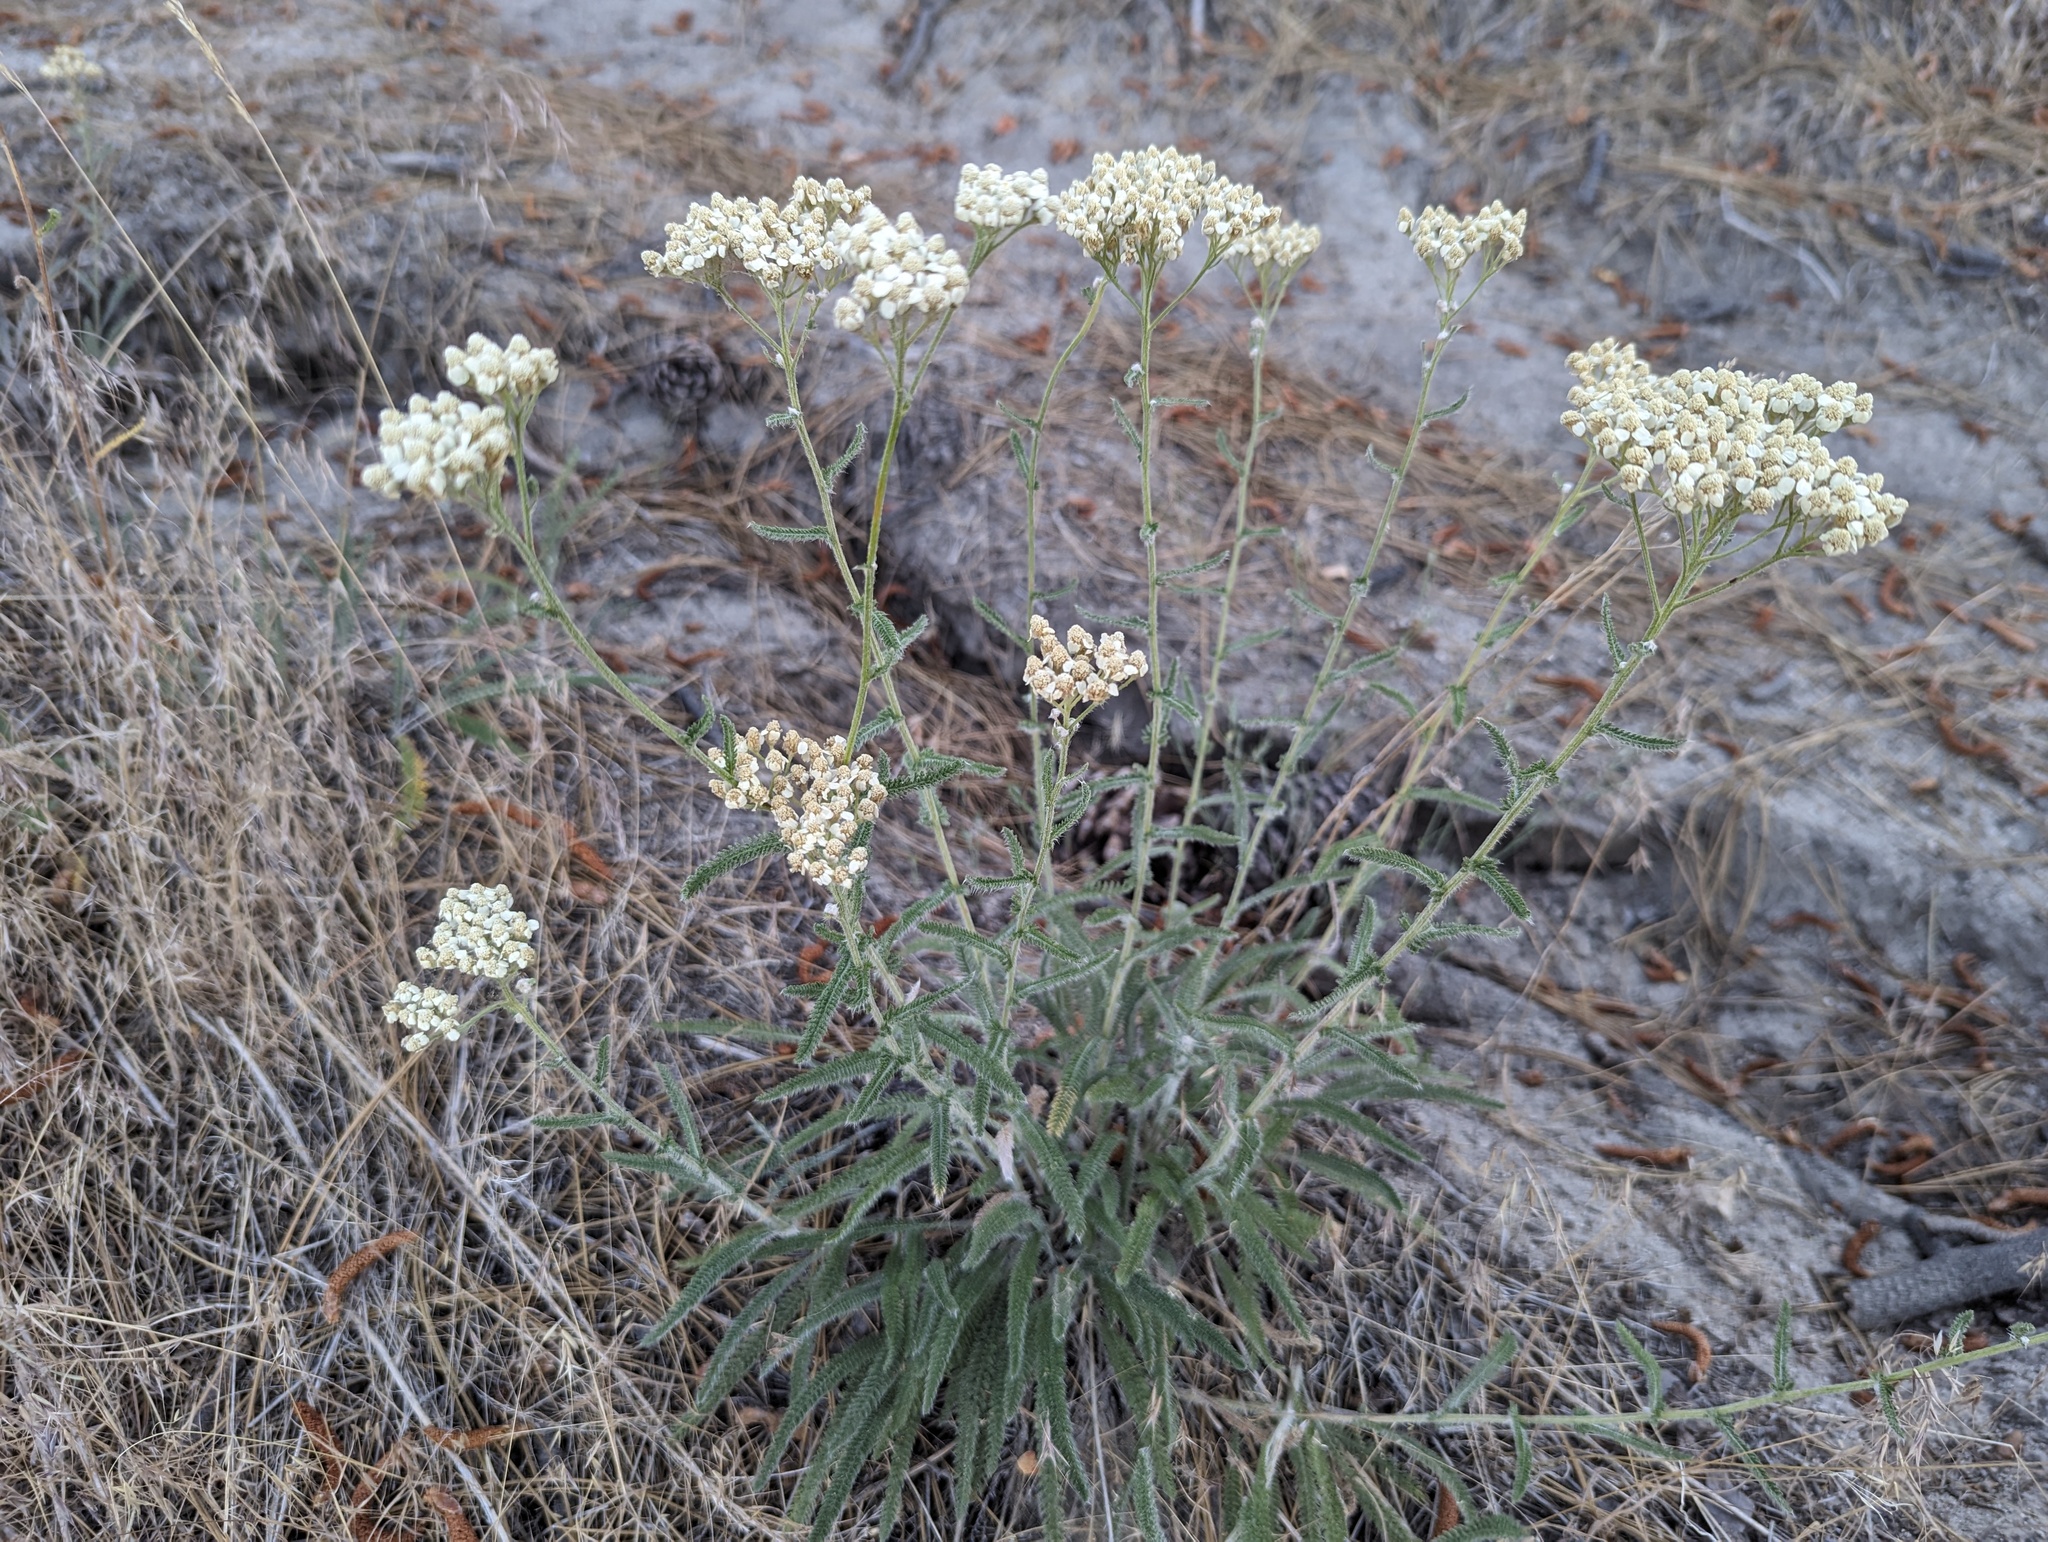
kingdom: Plantae
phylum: Tracheophyta
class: Magnoliopsida
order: Asterales
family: Asteraceae
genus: Achillea
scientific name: Achillea millefolium
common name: Yarrow
